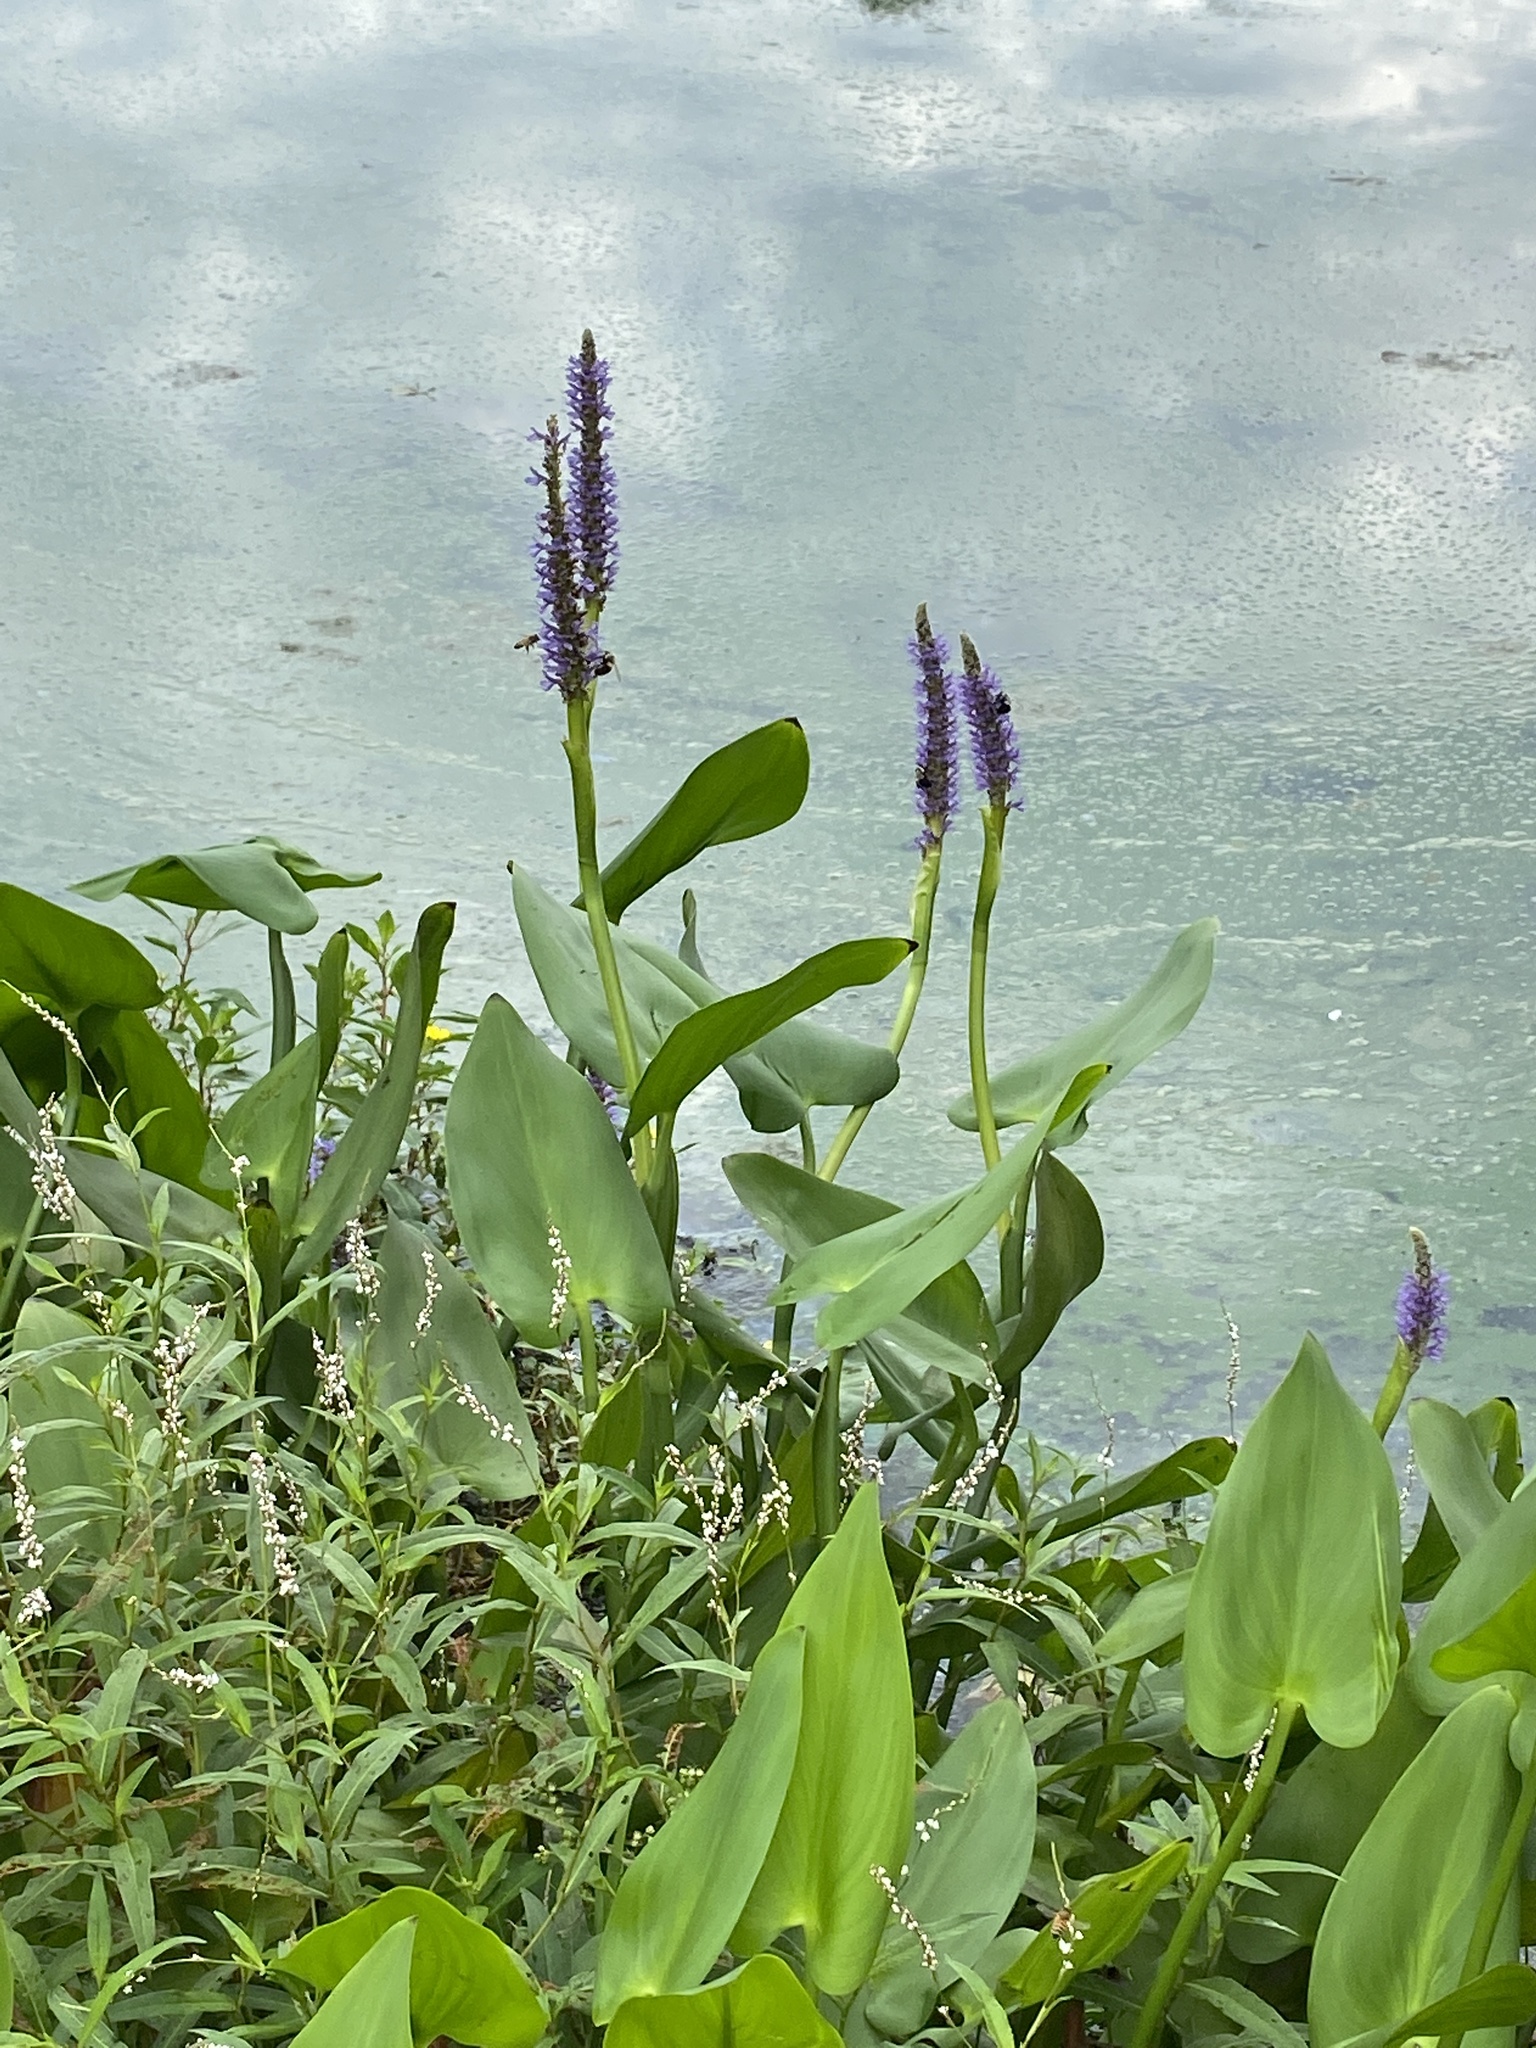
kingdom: Plantae
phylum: Tracheophyta
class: Liliopsida
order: Commelinales
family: Pontederiaceae
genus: Pontederia
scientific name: Pontederia cordata
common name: Pickerelweed
